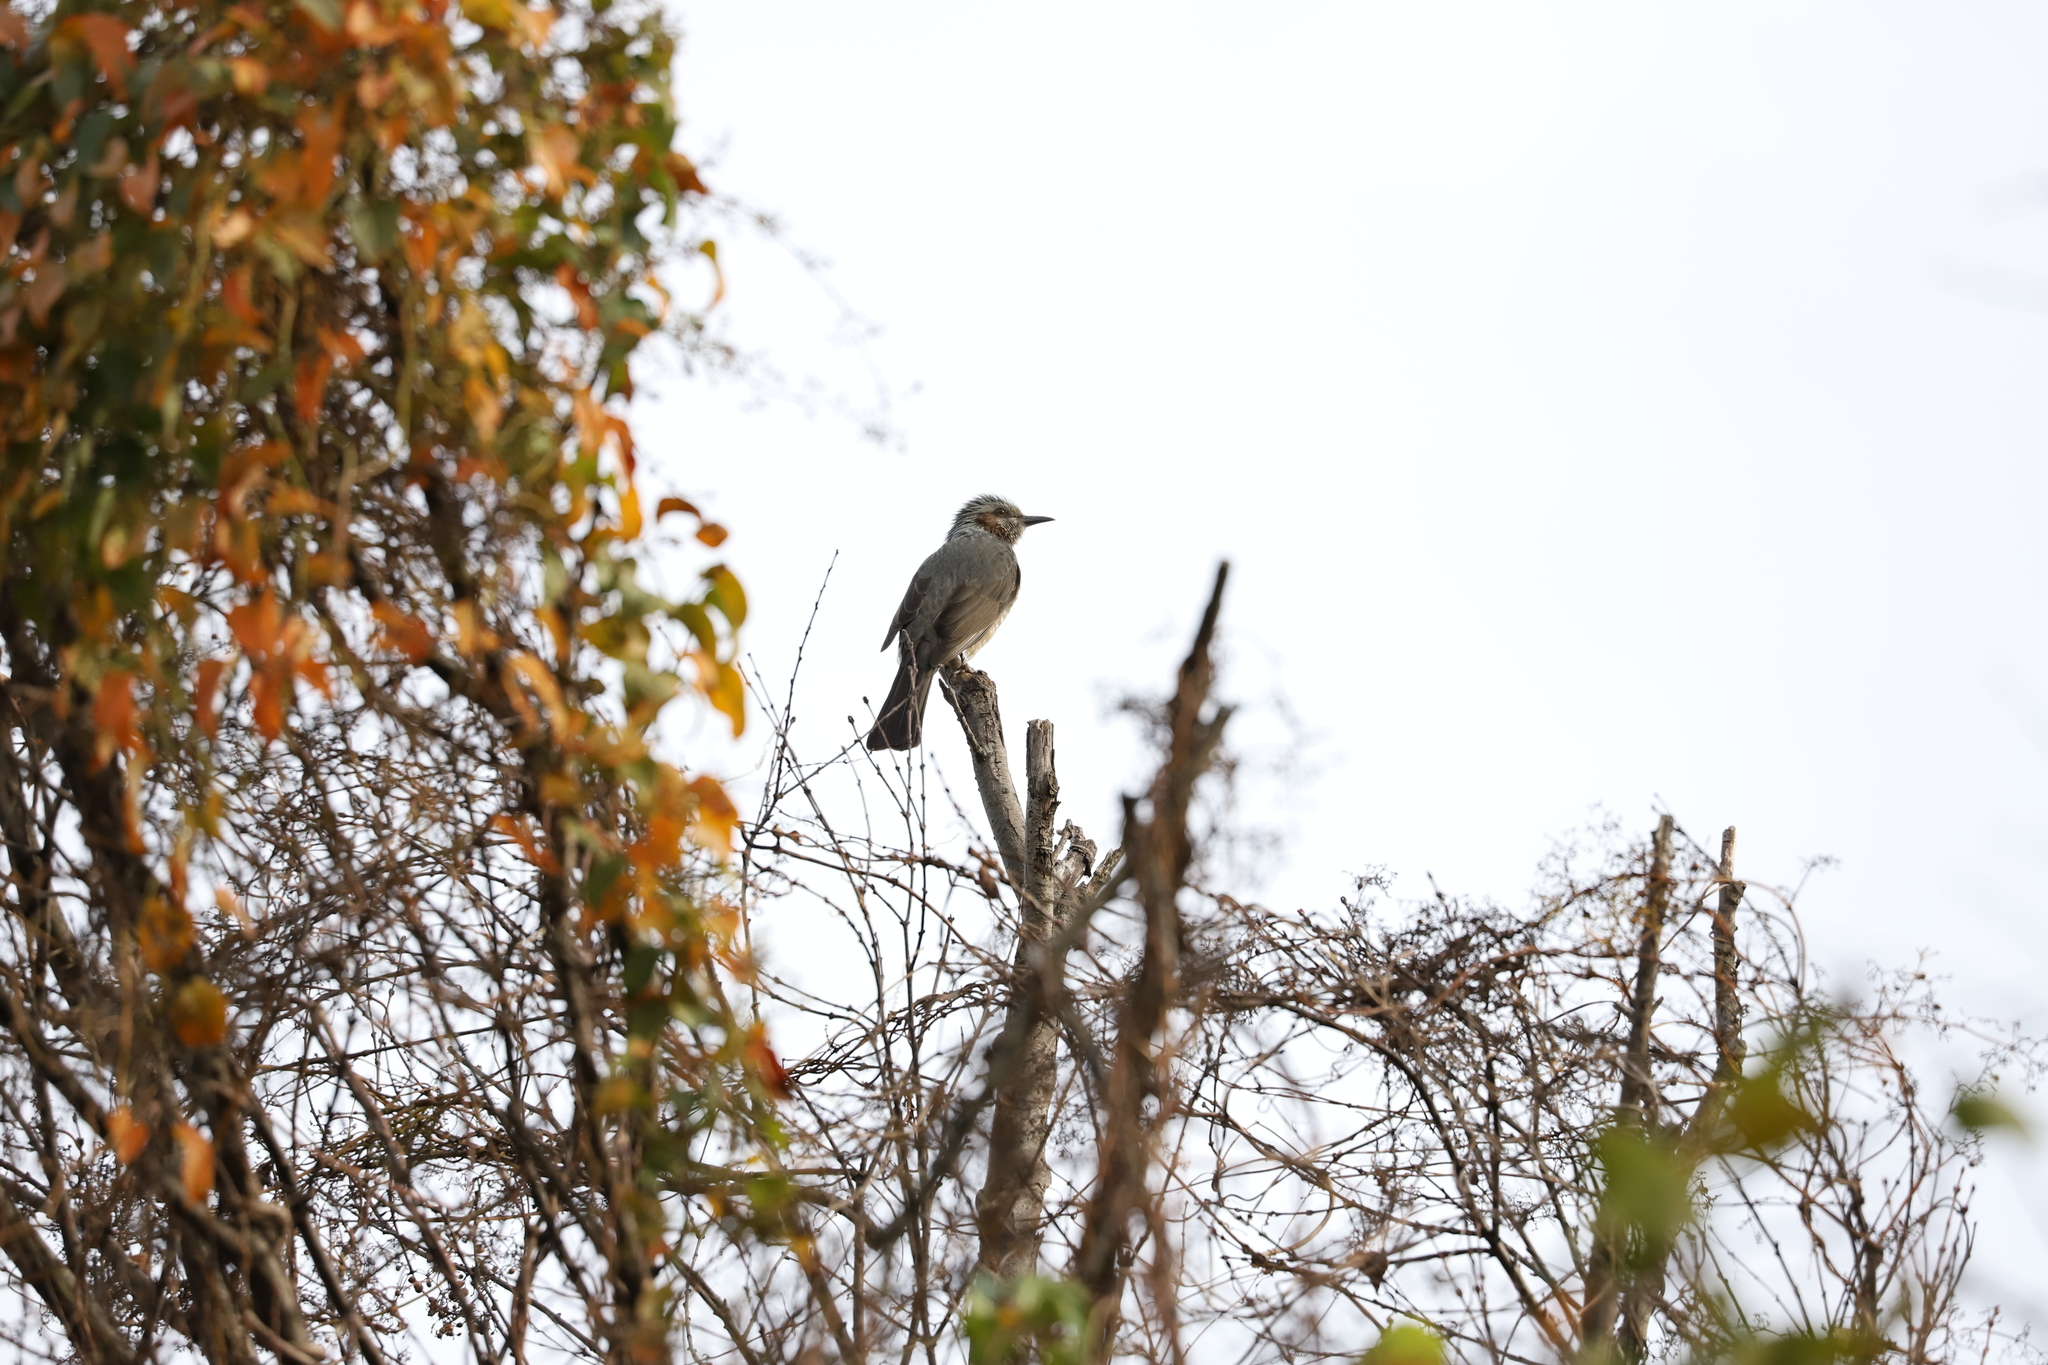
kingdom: Animalia
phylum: Chordata
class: Aves
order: Passeriformes
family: Pycnonotidae
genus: Hypsipetes
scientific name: Hypsipetes amaurotis
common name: Brown-eared bulbul
